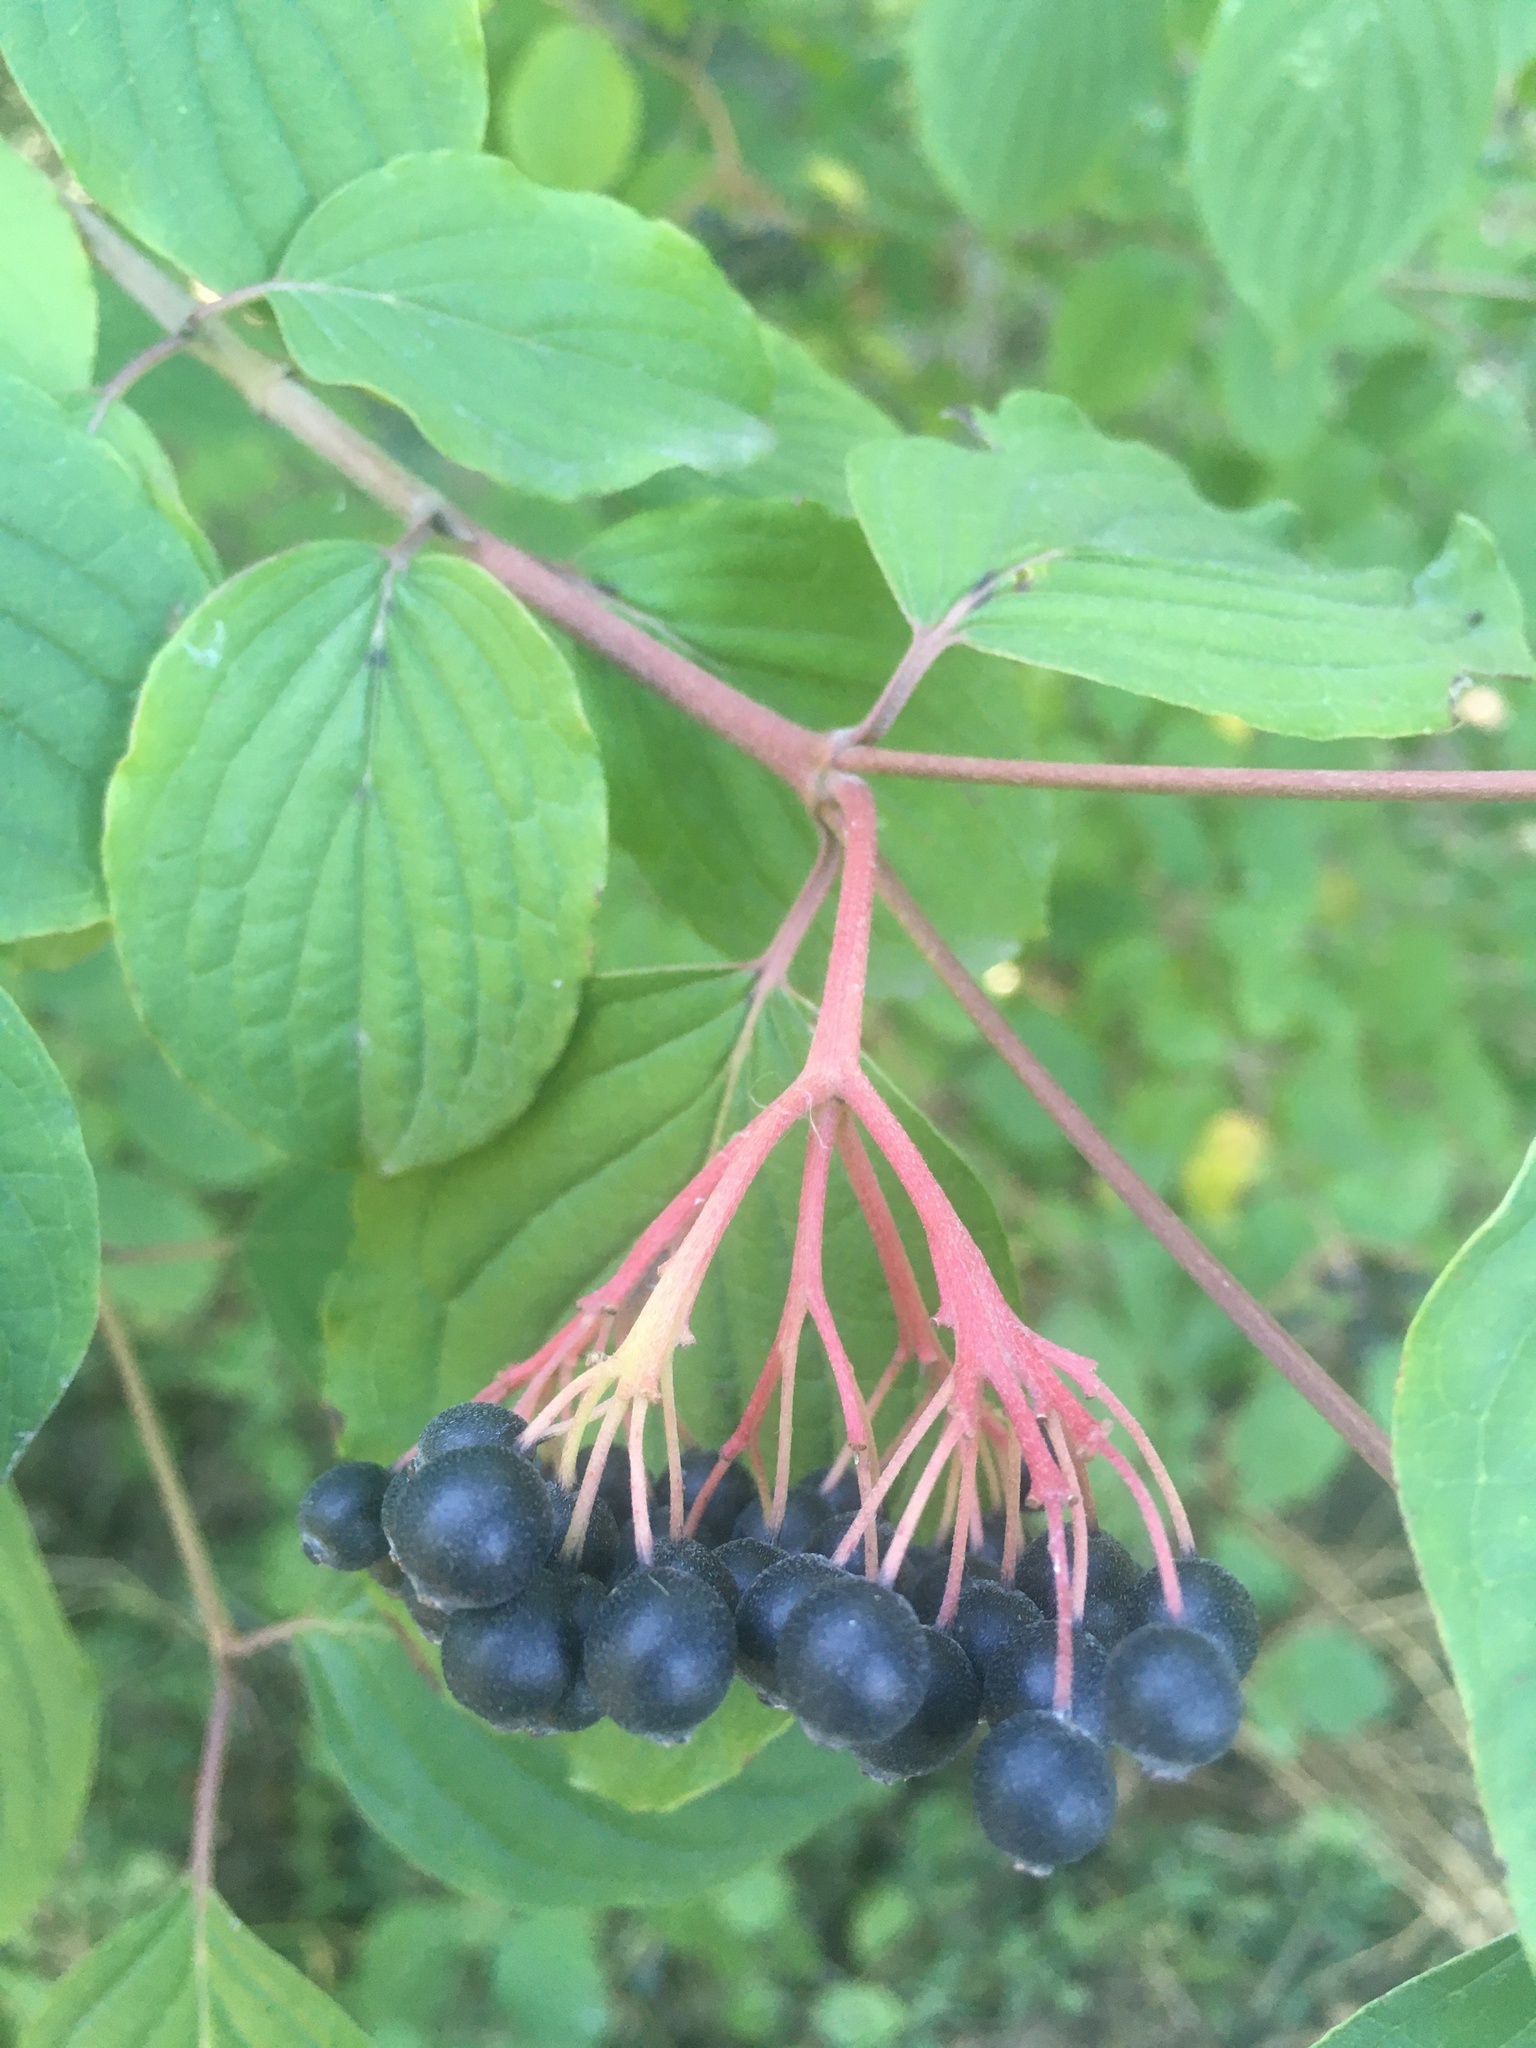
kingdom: Plantae
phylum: Tracheophyta
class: Magnoliopsida
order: Cornales
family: Cornaceae
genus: Cornus
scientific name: Cornus sanguinea
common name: Dogwood
